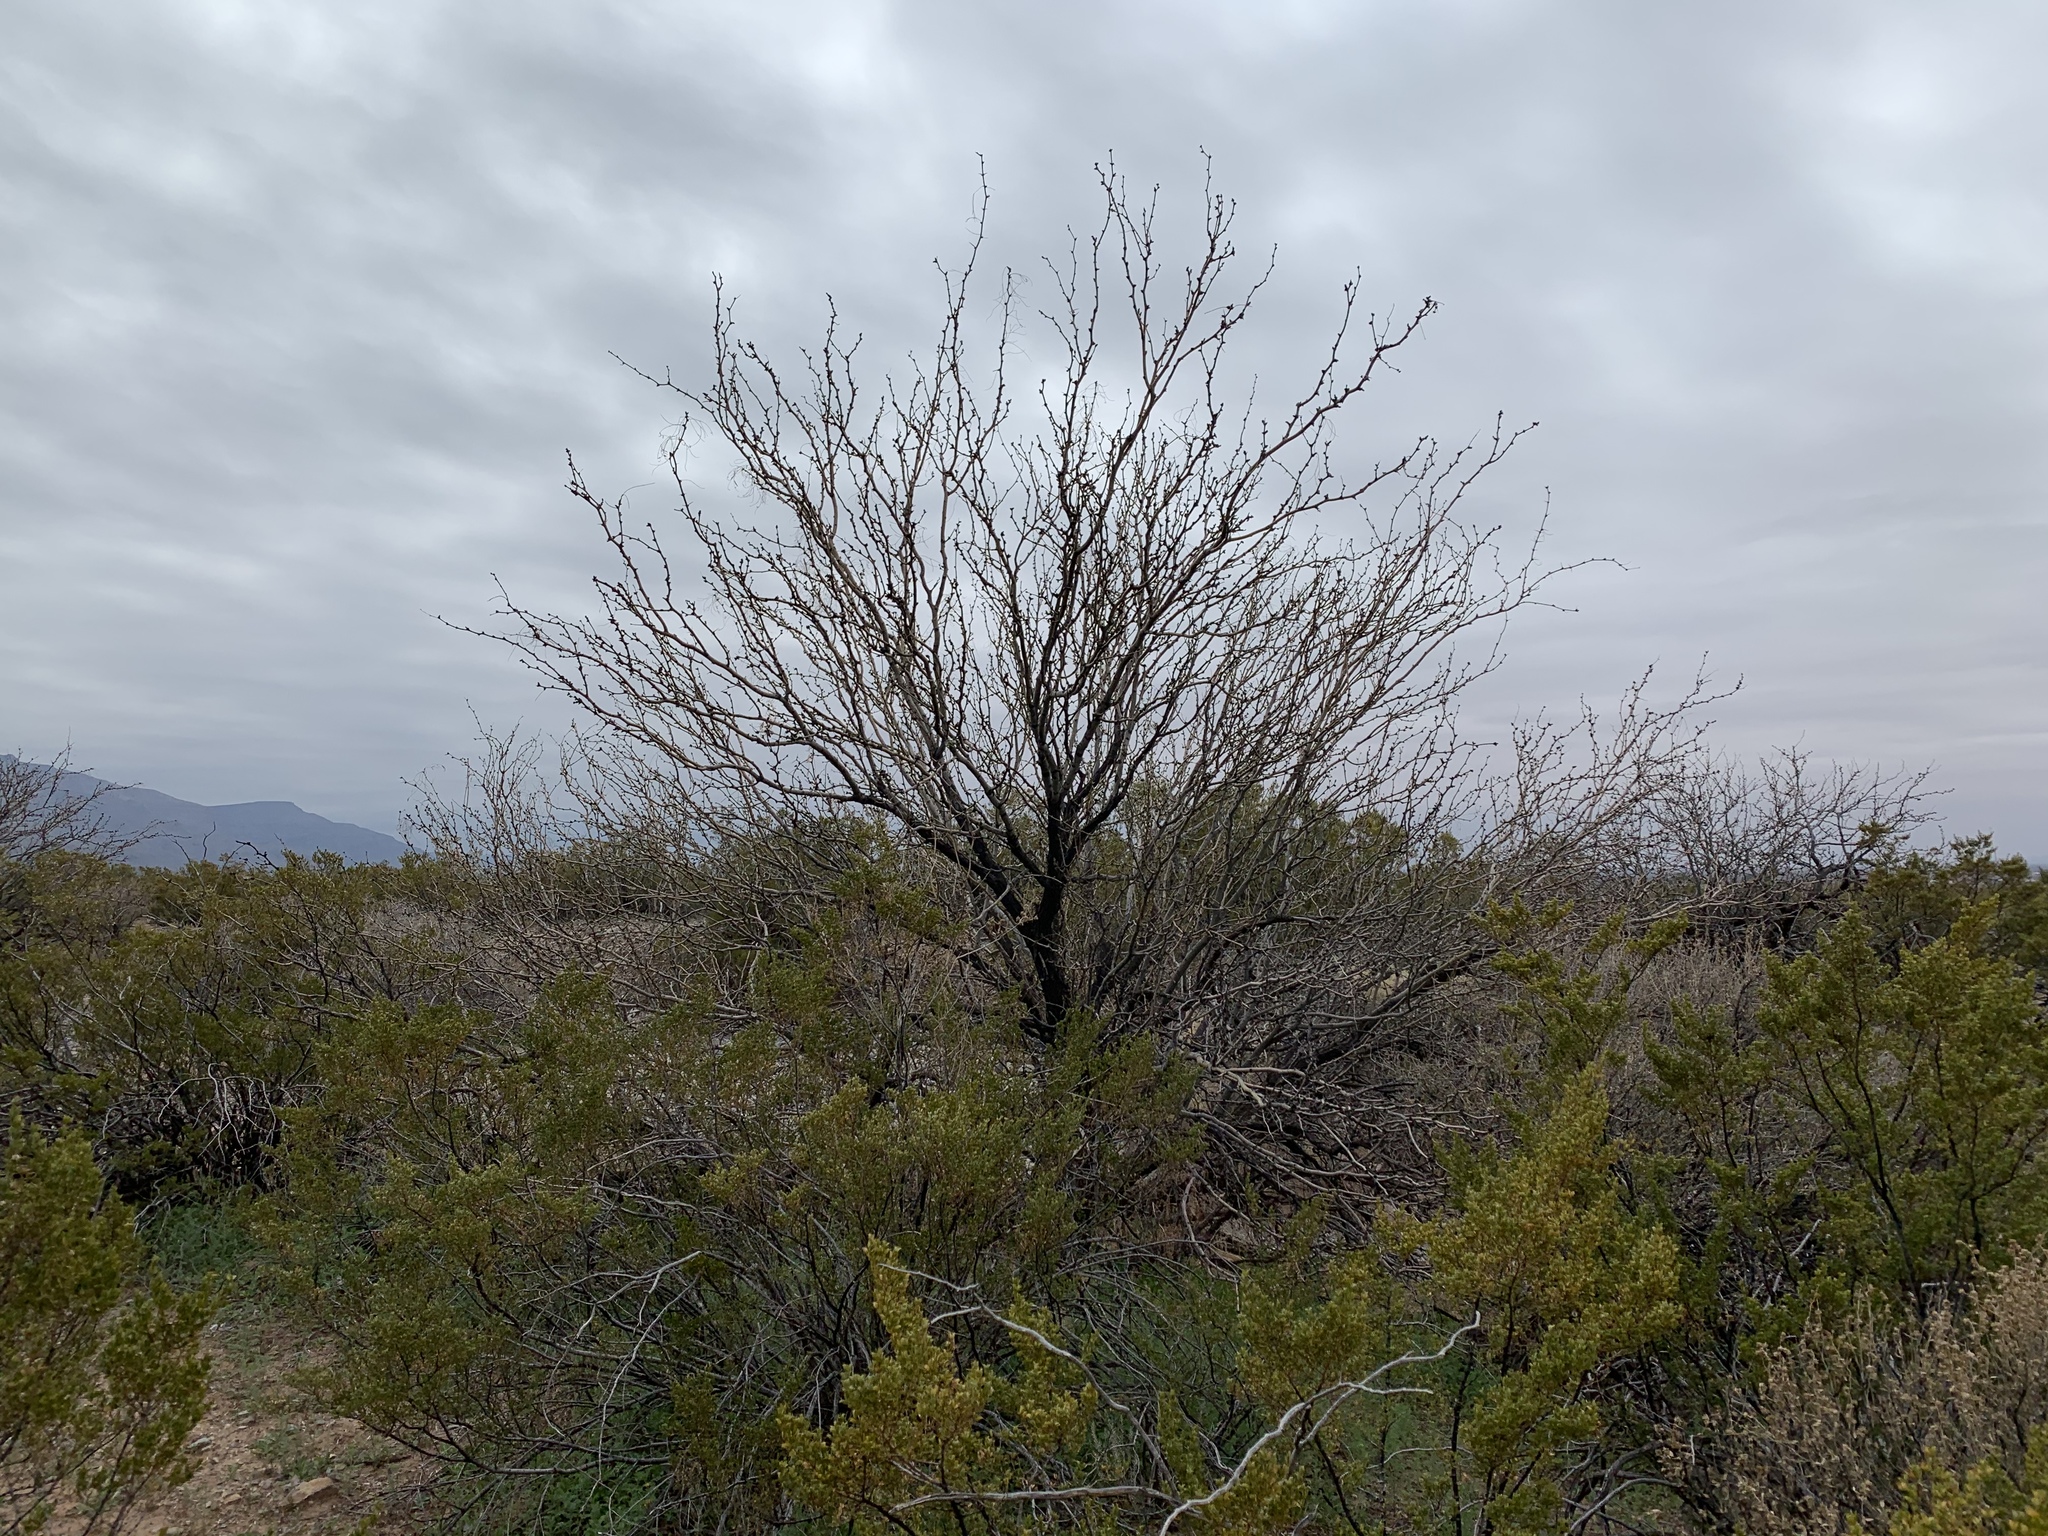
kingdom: Plantae
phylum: Tracheophyta
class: Magnoliopsida
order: Fabales
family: Fabaceae
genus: Prosopis
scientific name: Prosopis glandulosa
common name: Honey mesquite
